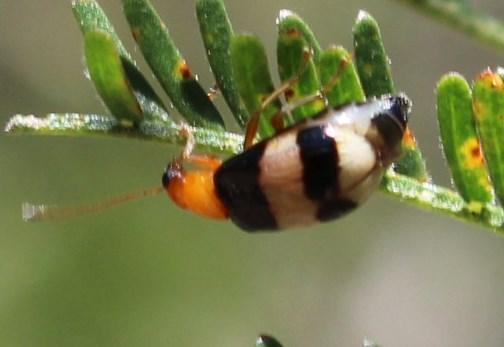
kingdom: Animalia
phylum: Arthropoda
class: Insecta
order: Coleoptera
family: Chrysomelidae
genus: Monolepta
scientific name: Monolepta
